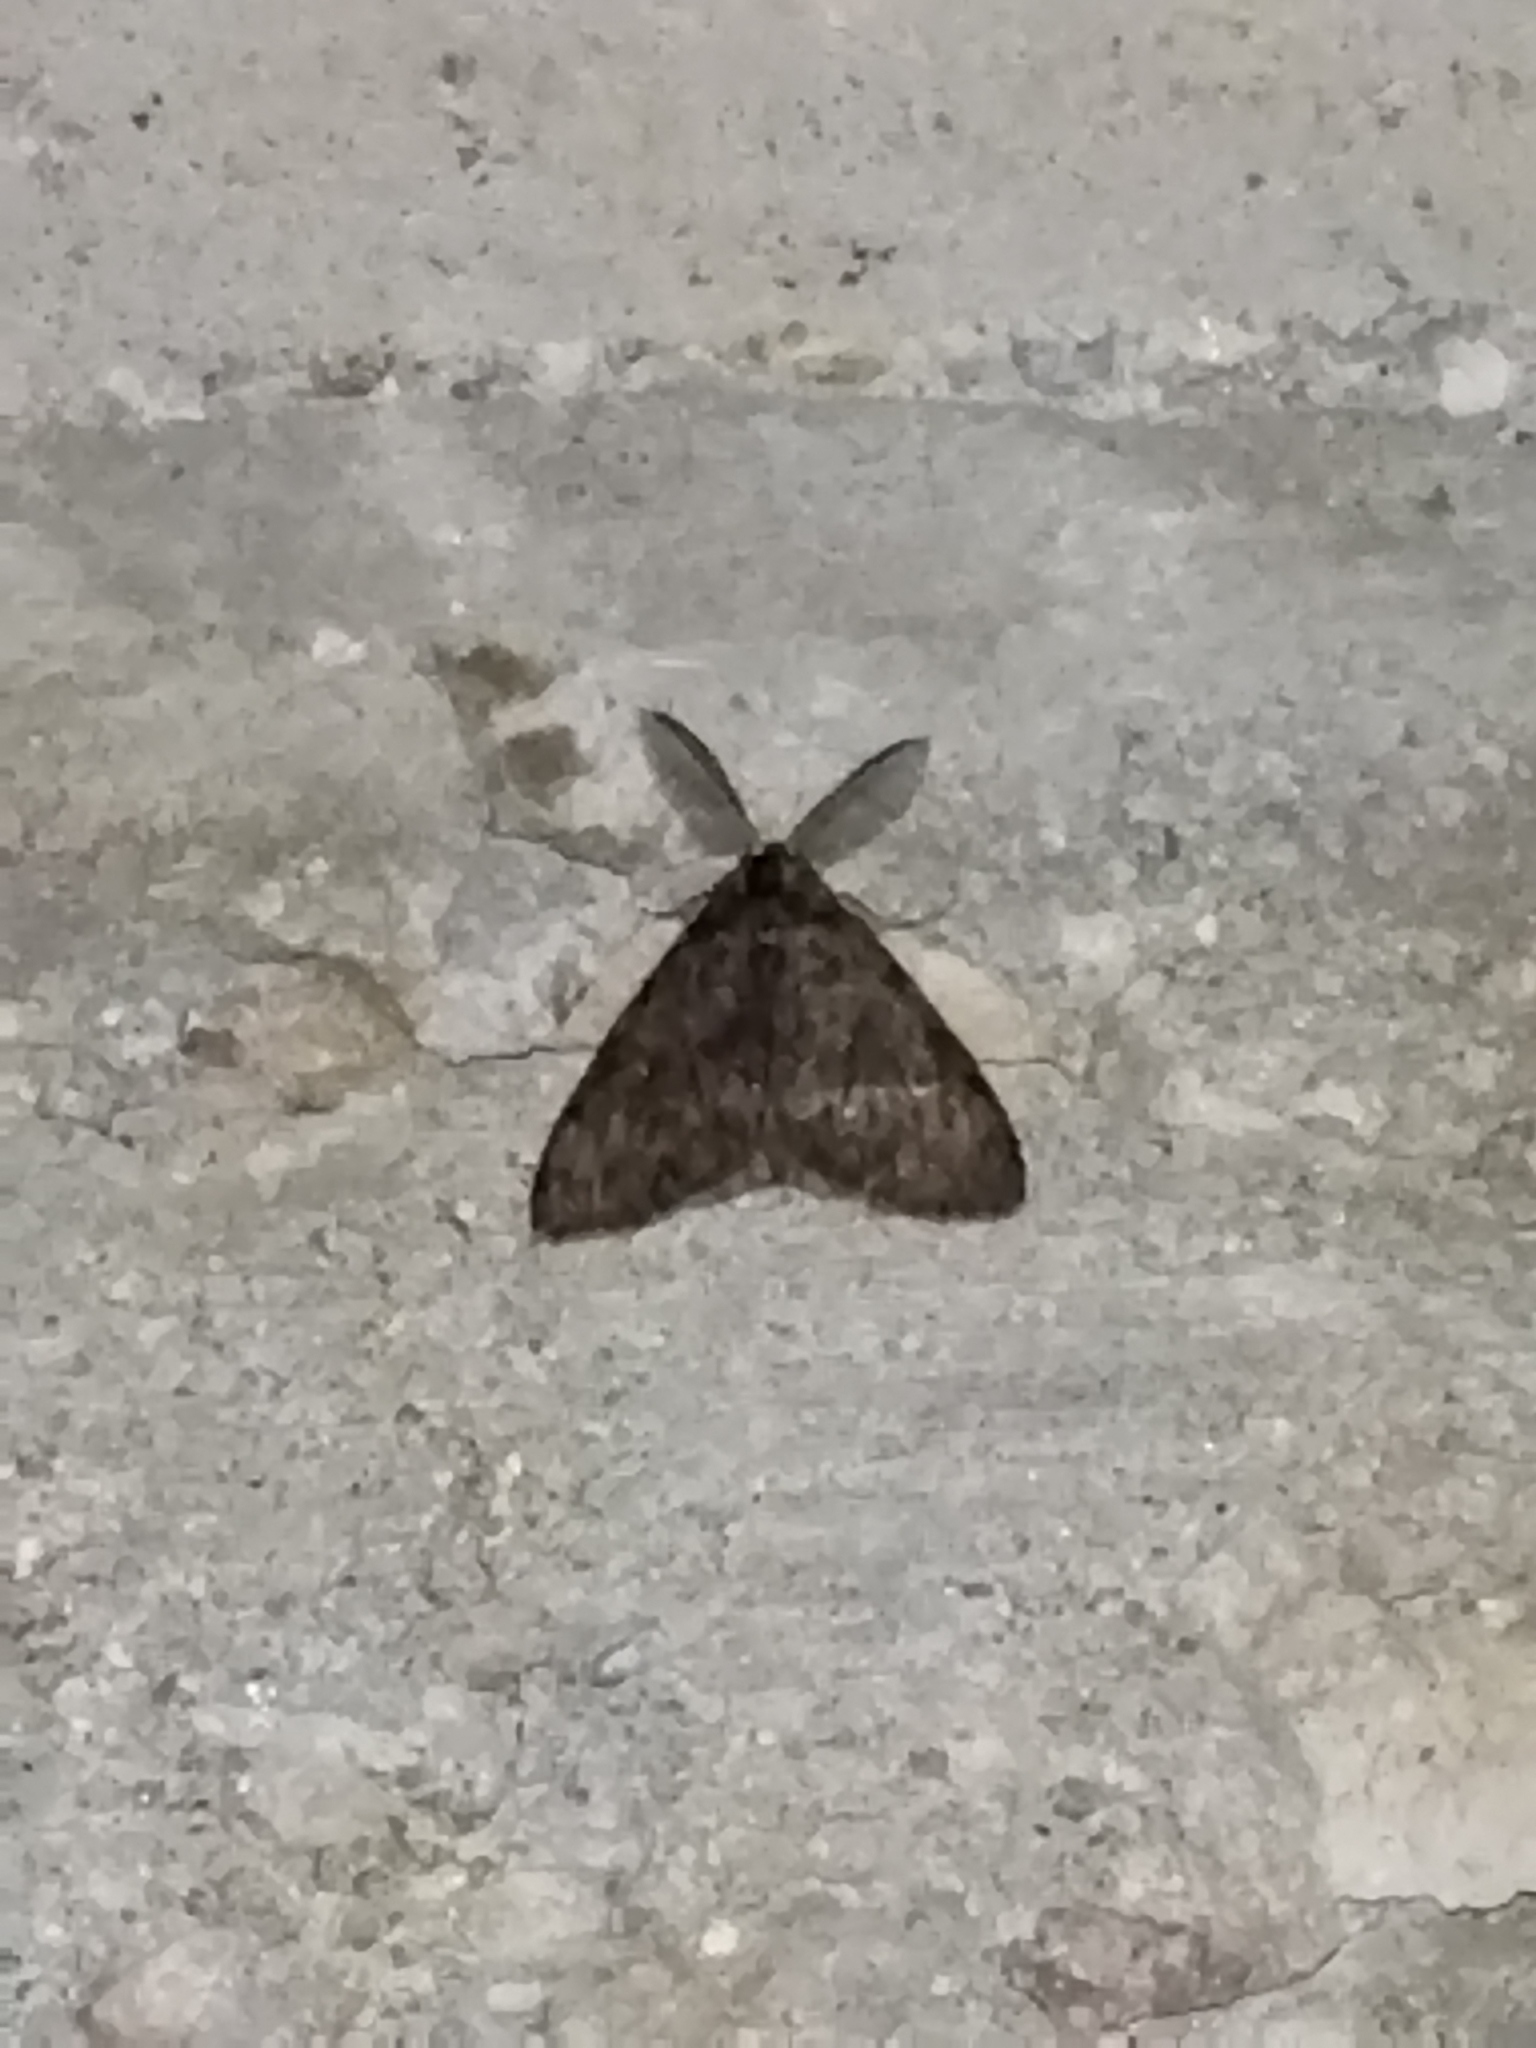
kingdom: Animalia
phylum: Arthropoda
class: Insecta
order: Lepidoptera
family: Erebidae
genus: Lymantria
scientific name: Lymantria monacha
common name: Black arches
